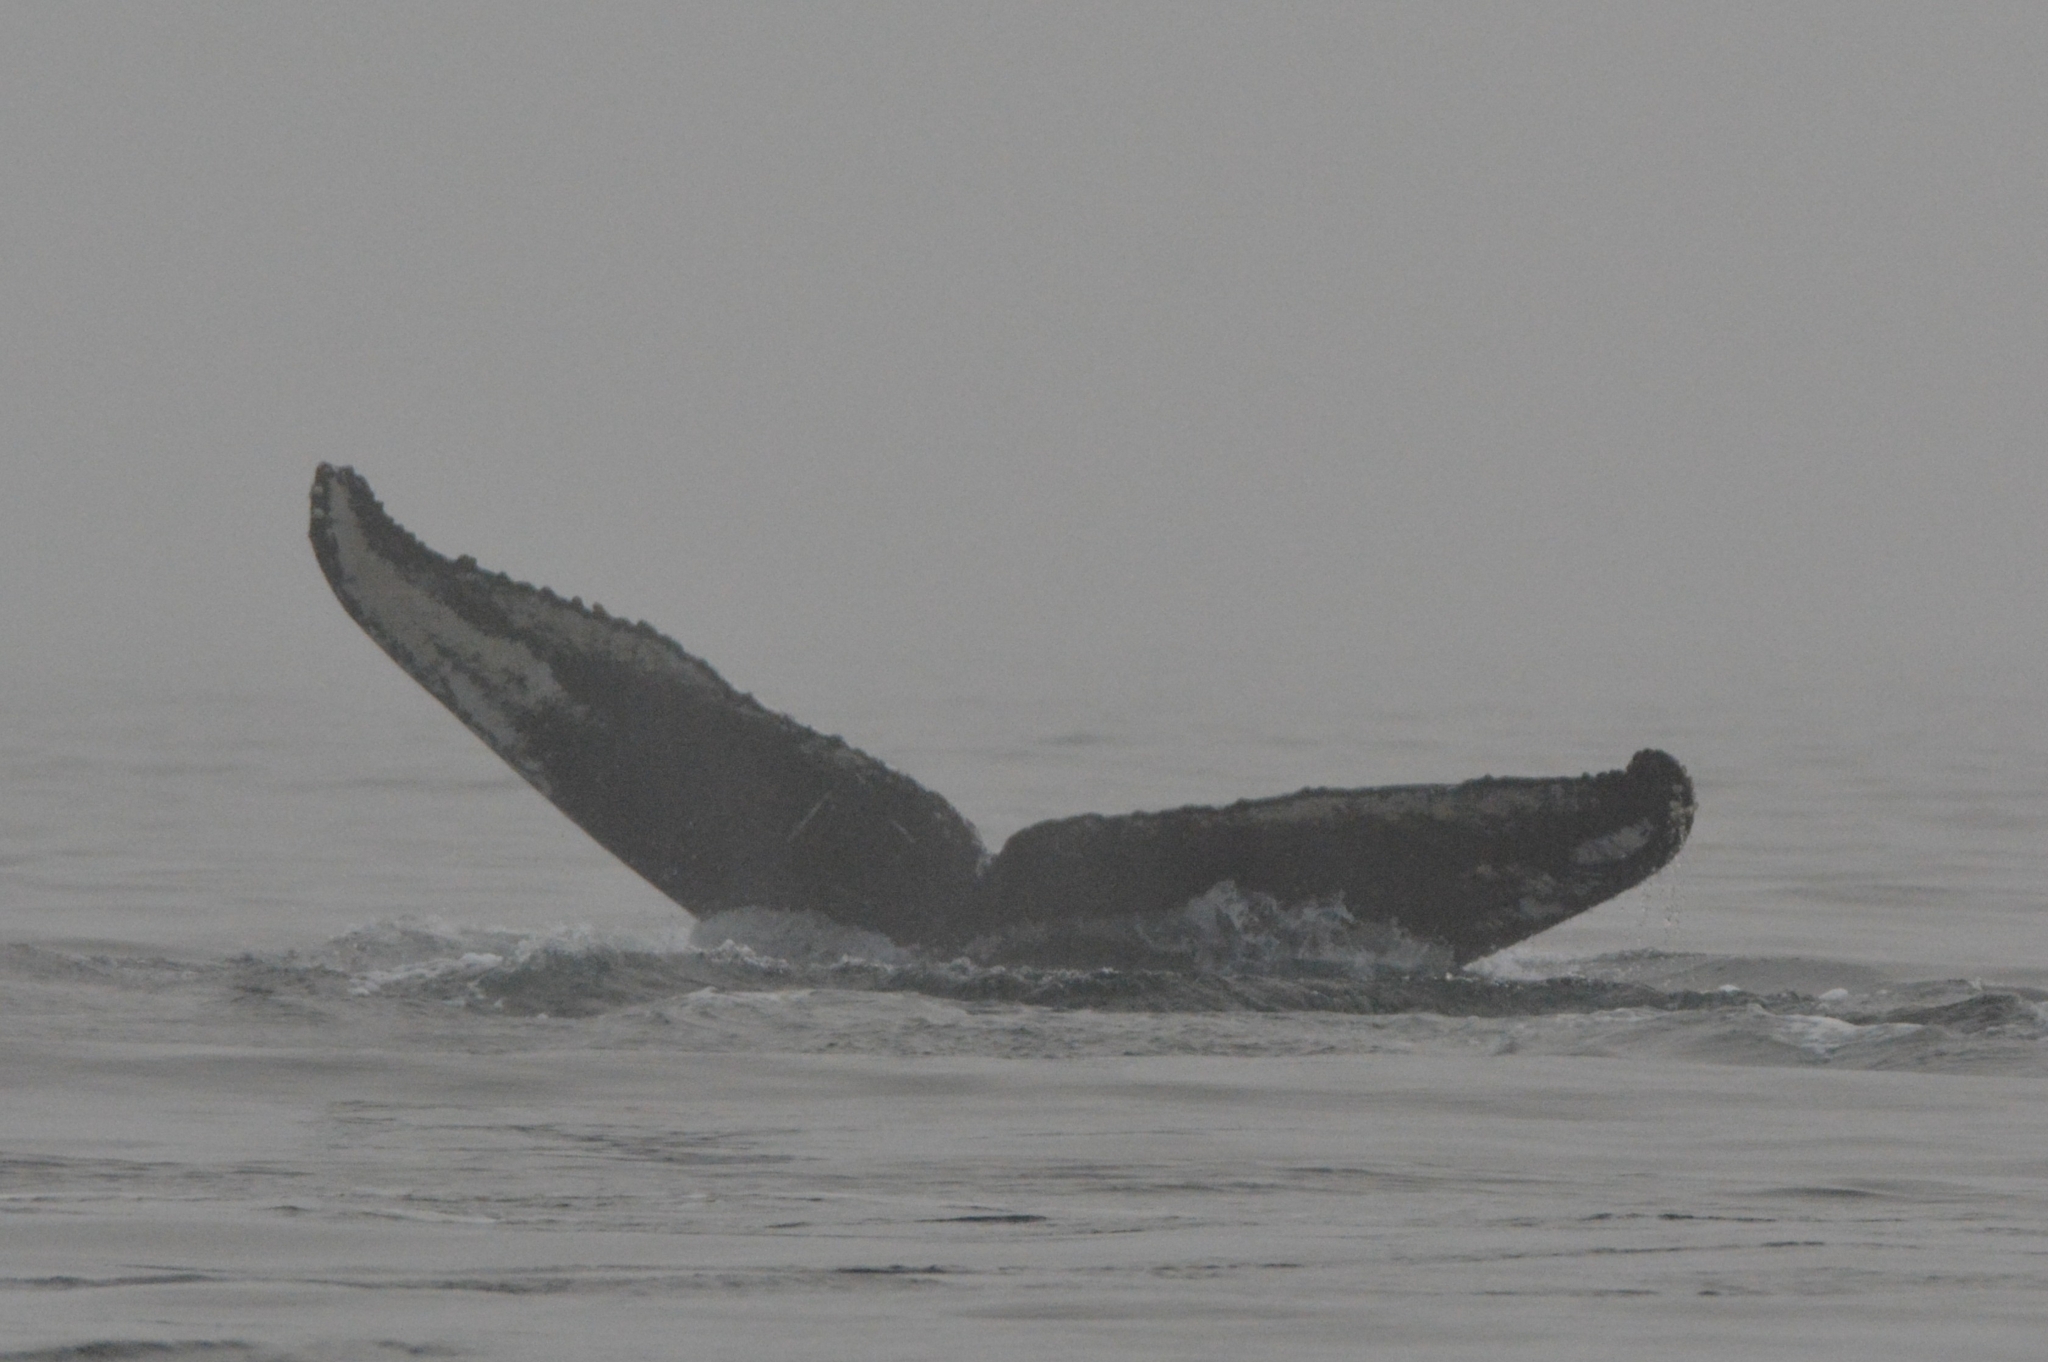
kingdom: Animalia
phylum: Chordata
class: Mammalia
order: Cetacea
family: Balaenopteridae
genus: Megaptera
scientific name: Megaptera novaeangliae
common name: Humpback whale
